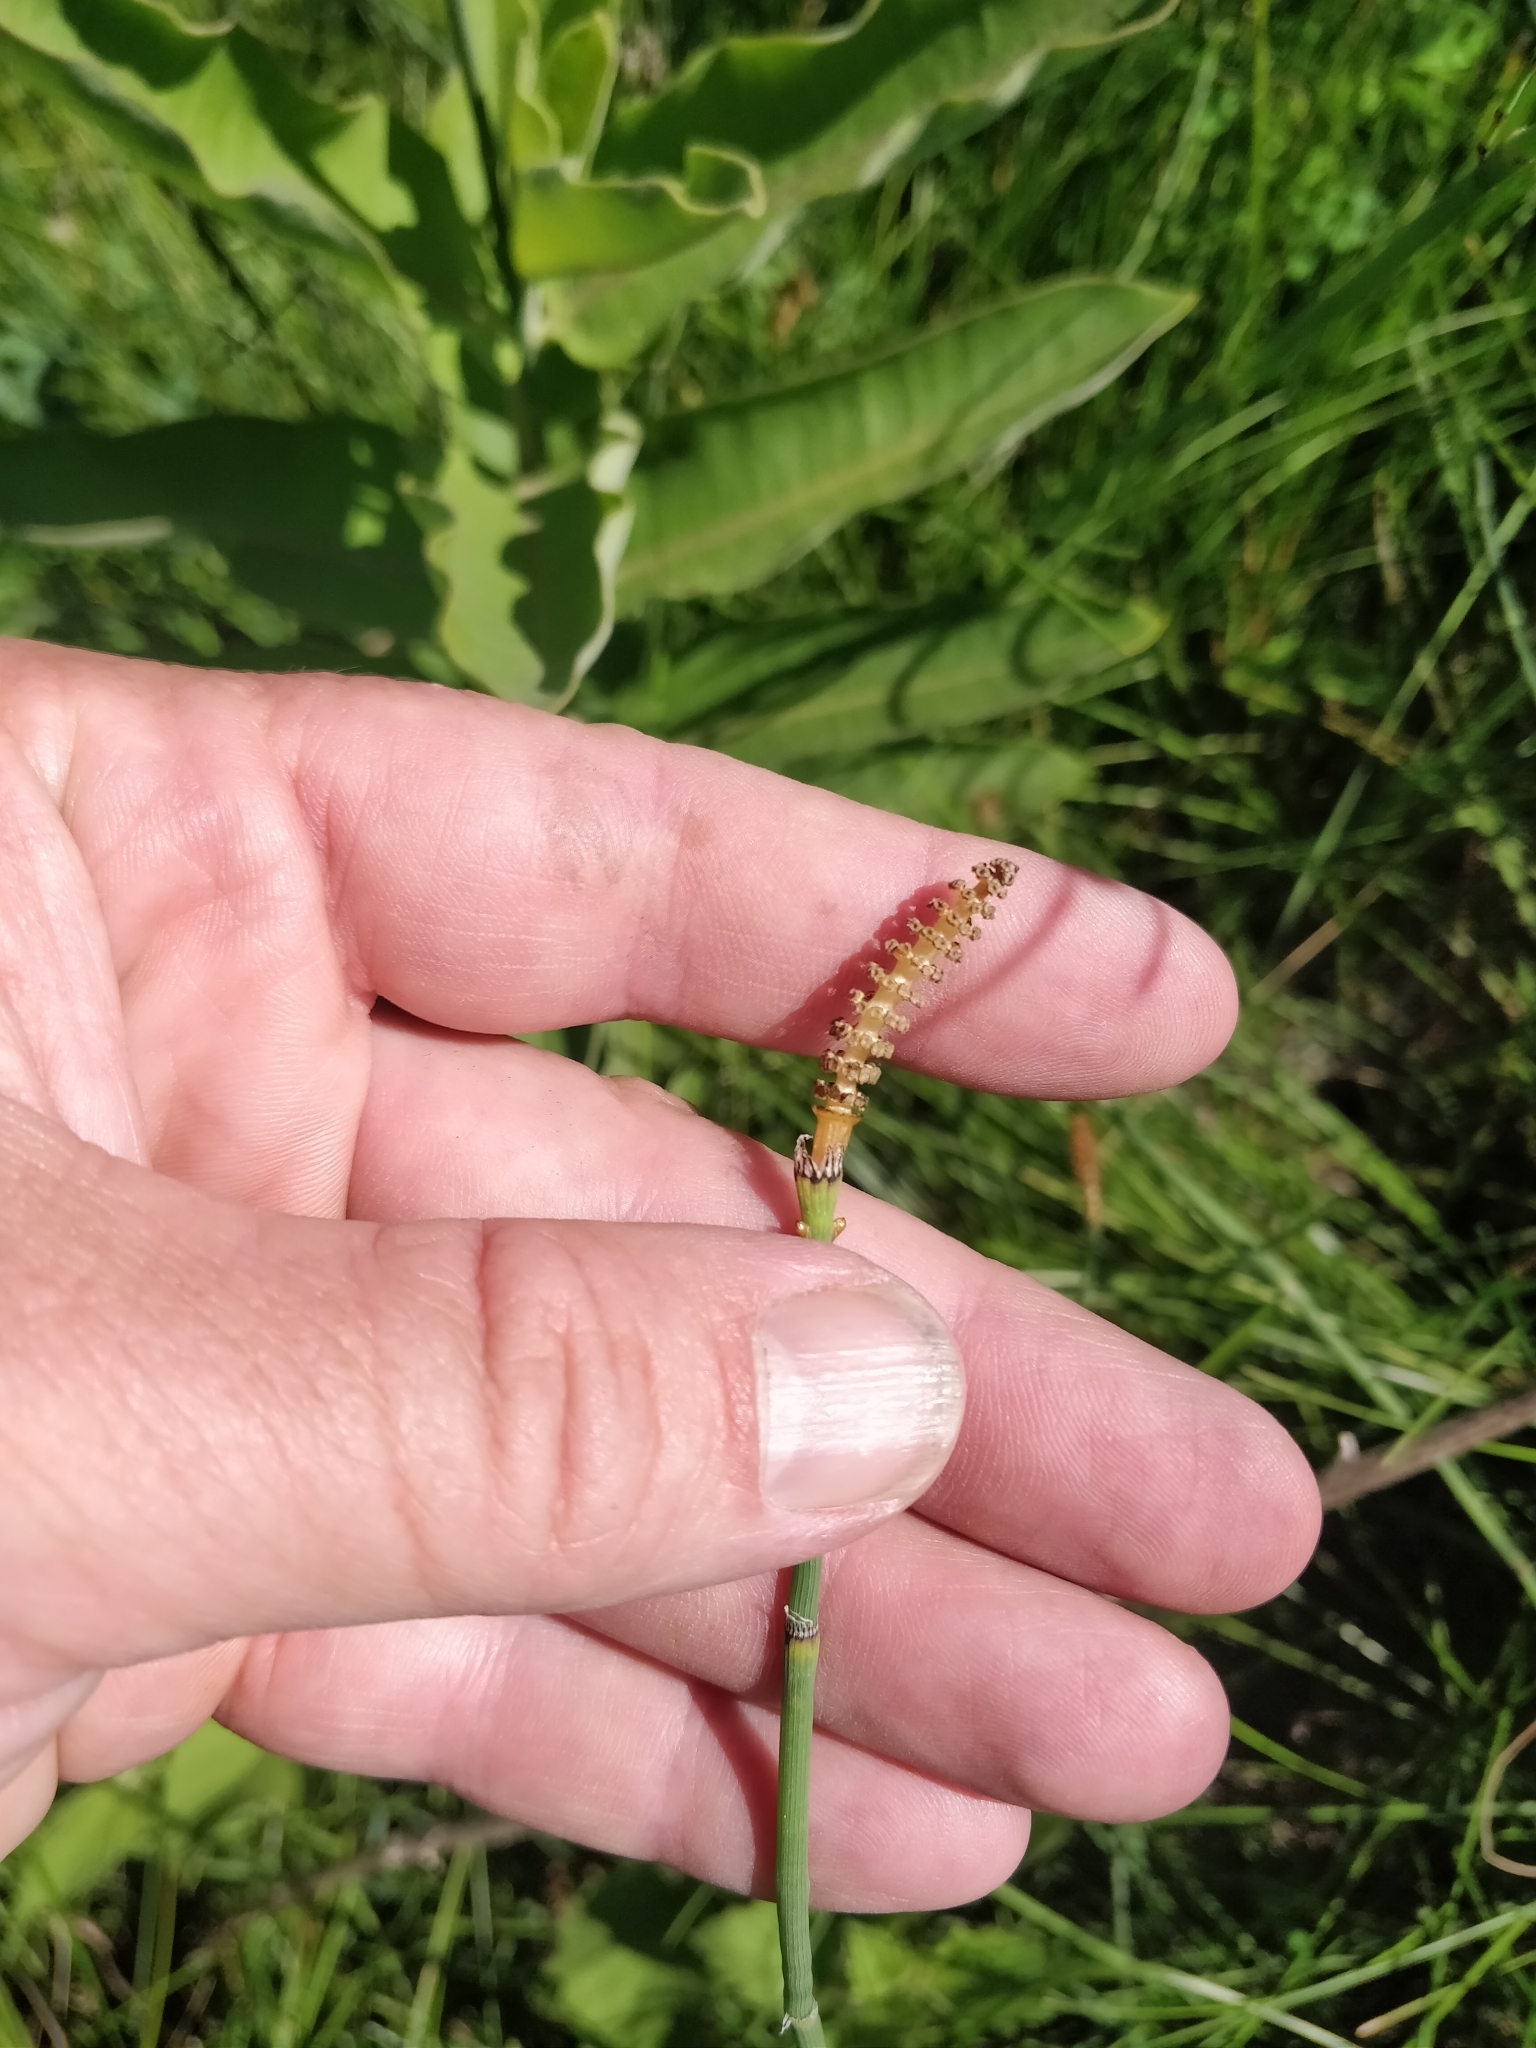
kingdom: Plantae
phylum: Tracheophyta
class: Polypodiopsida
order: Equisetales
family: Equisetaceae
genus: Equisetum
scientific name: Equisetum laevigatum
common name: Smooth scouring-rush
